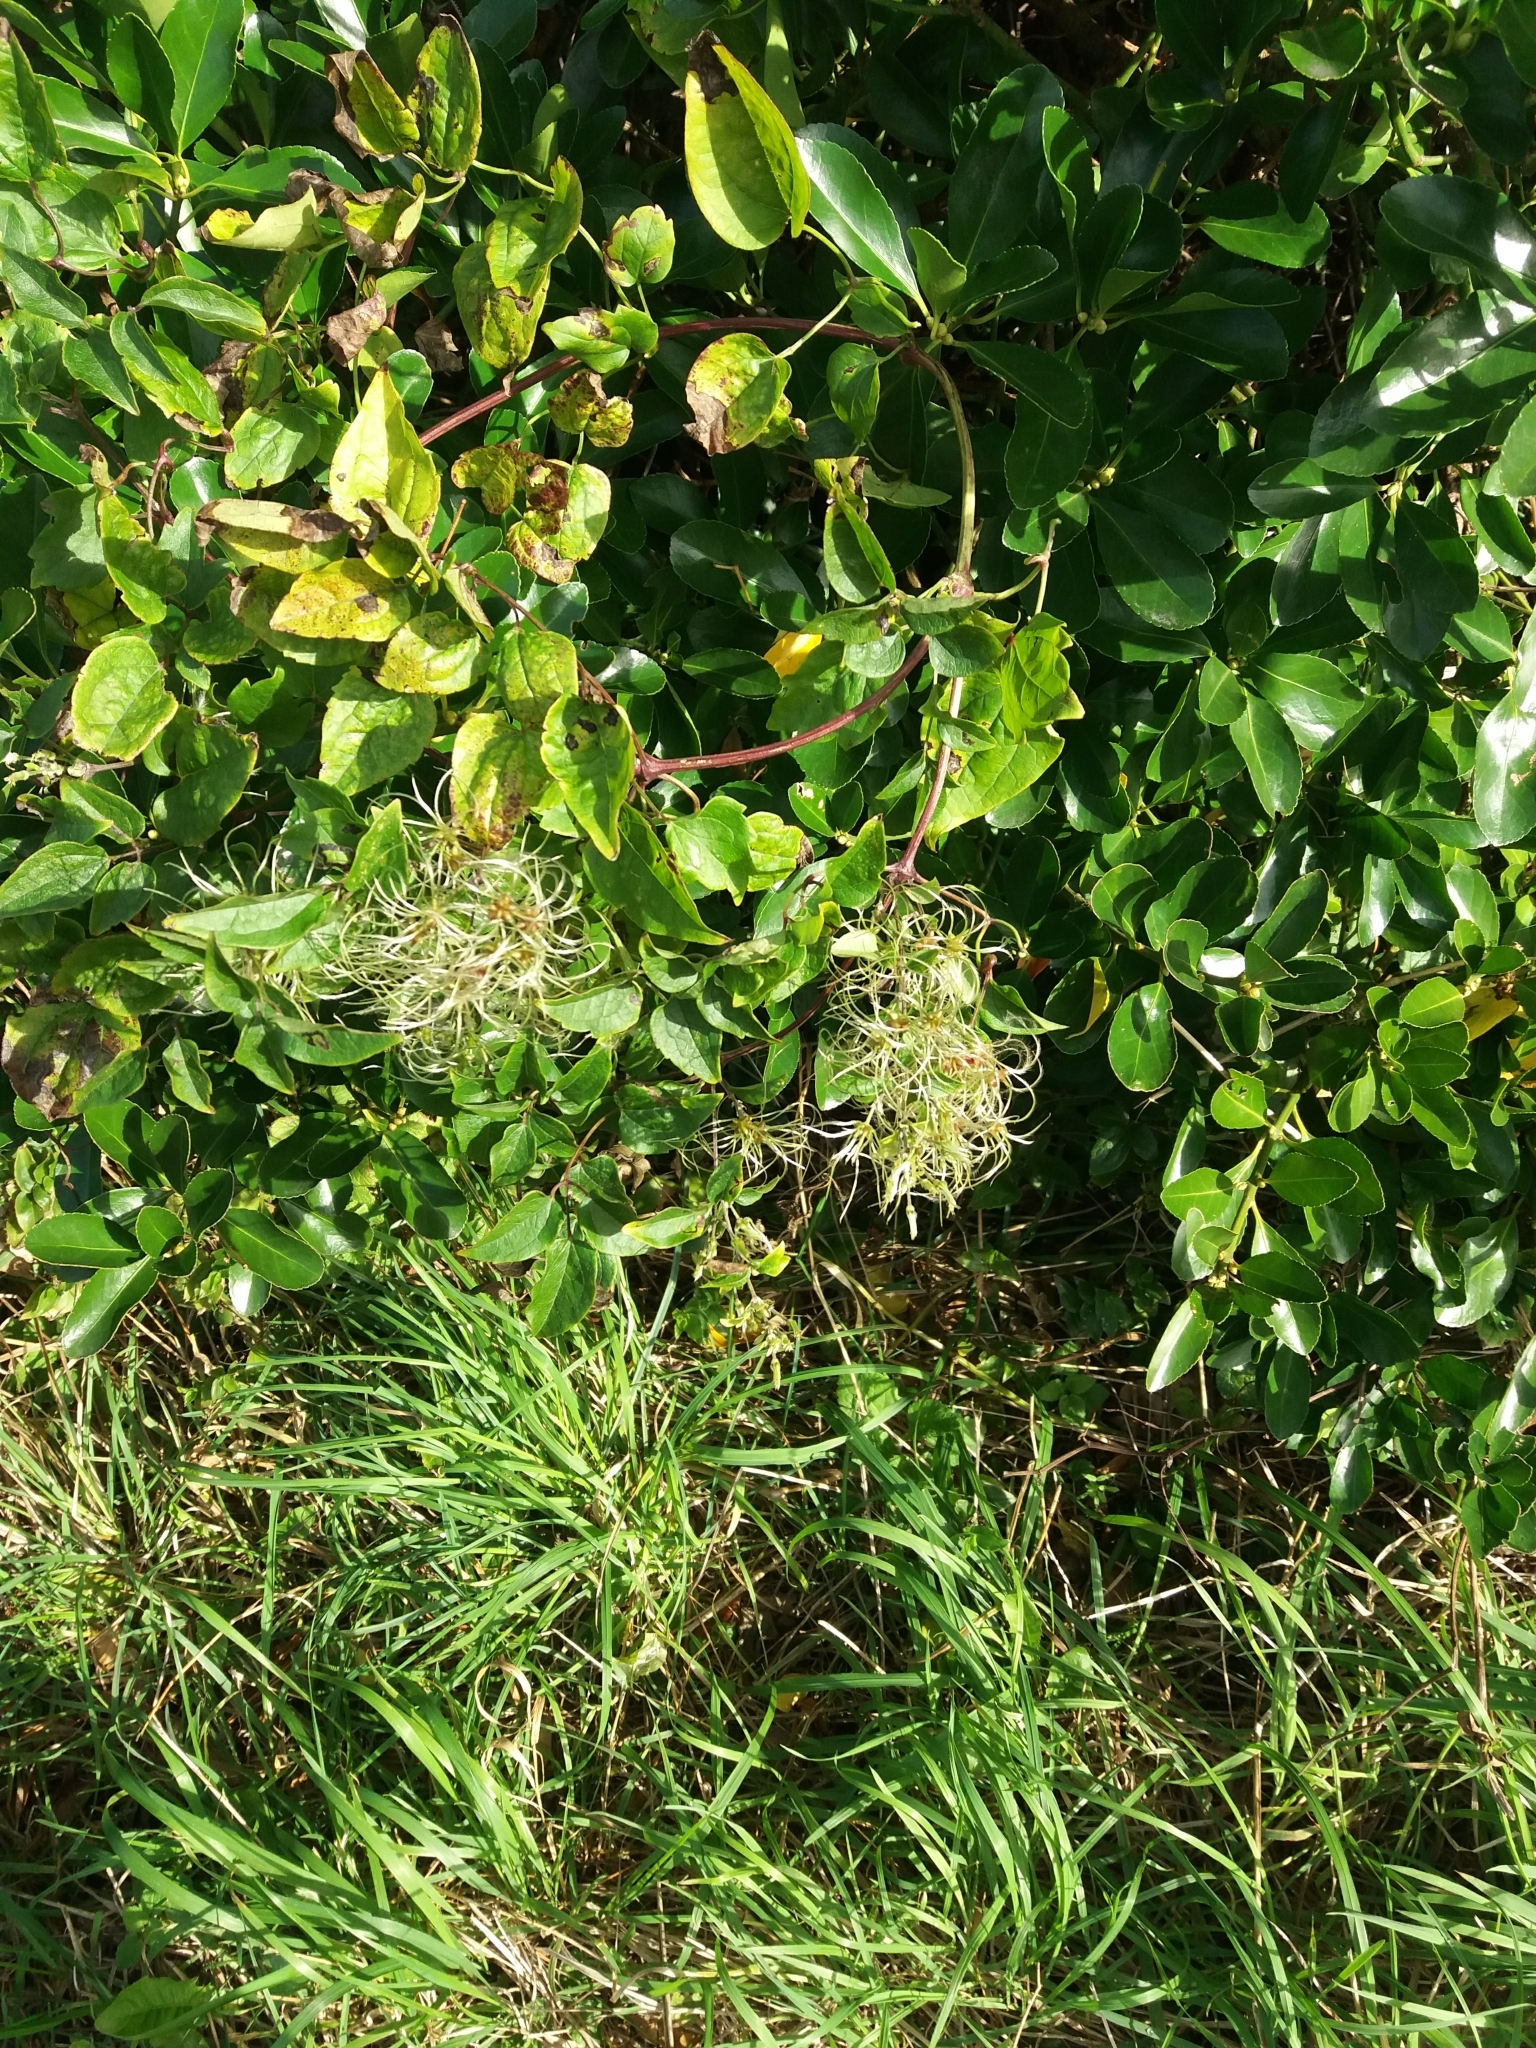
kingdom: Plantae
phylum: Tracheophyta
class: Magnoliopsida
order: Ranunculales
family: Ranunculaceae
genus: Clematis
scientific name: Clematis vitalba
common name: Evergreen clematis
